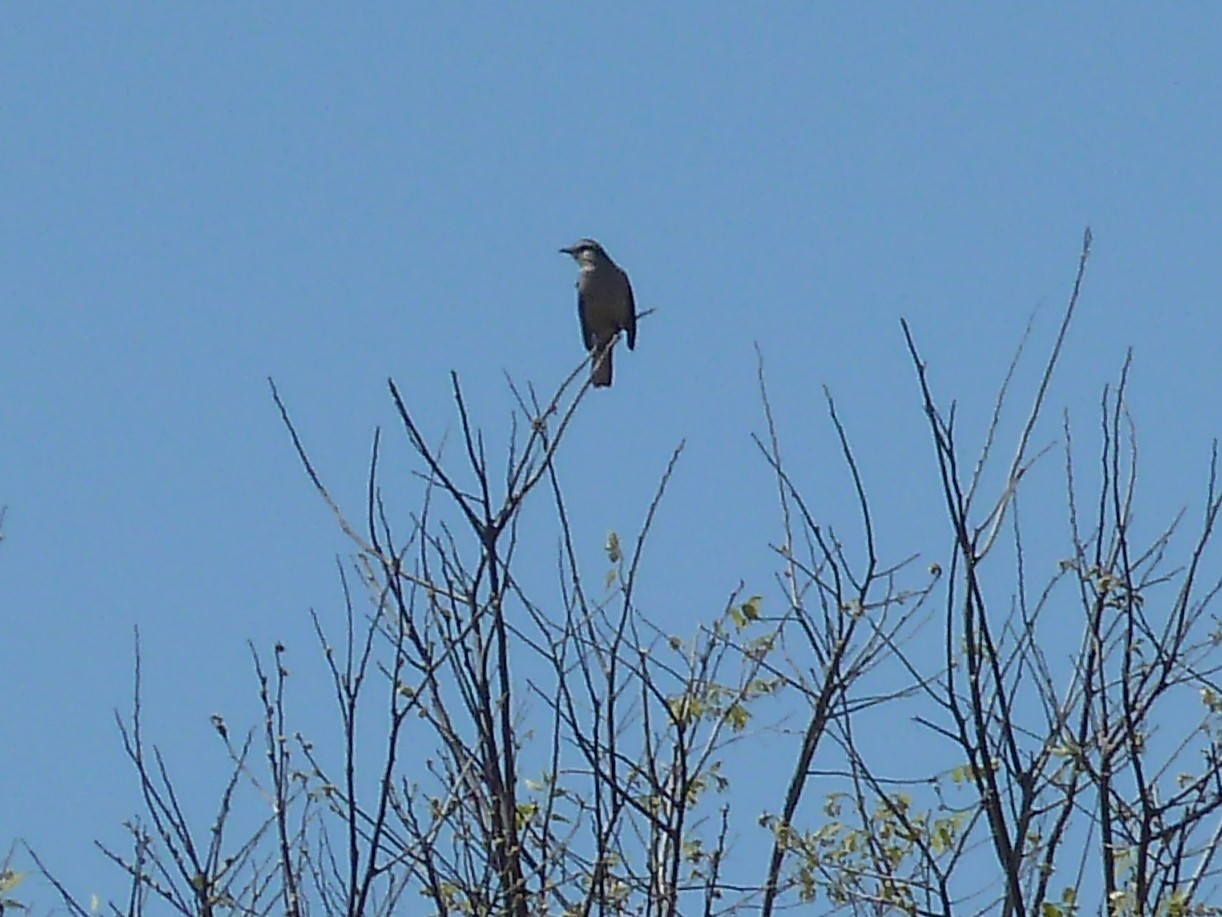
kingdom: Animalia
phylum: Chordata
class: Aves
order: Passeriformes
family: Mimidae
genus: Mimus
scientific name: Mimus saturninus
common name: Chalk-browed mockingbird
